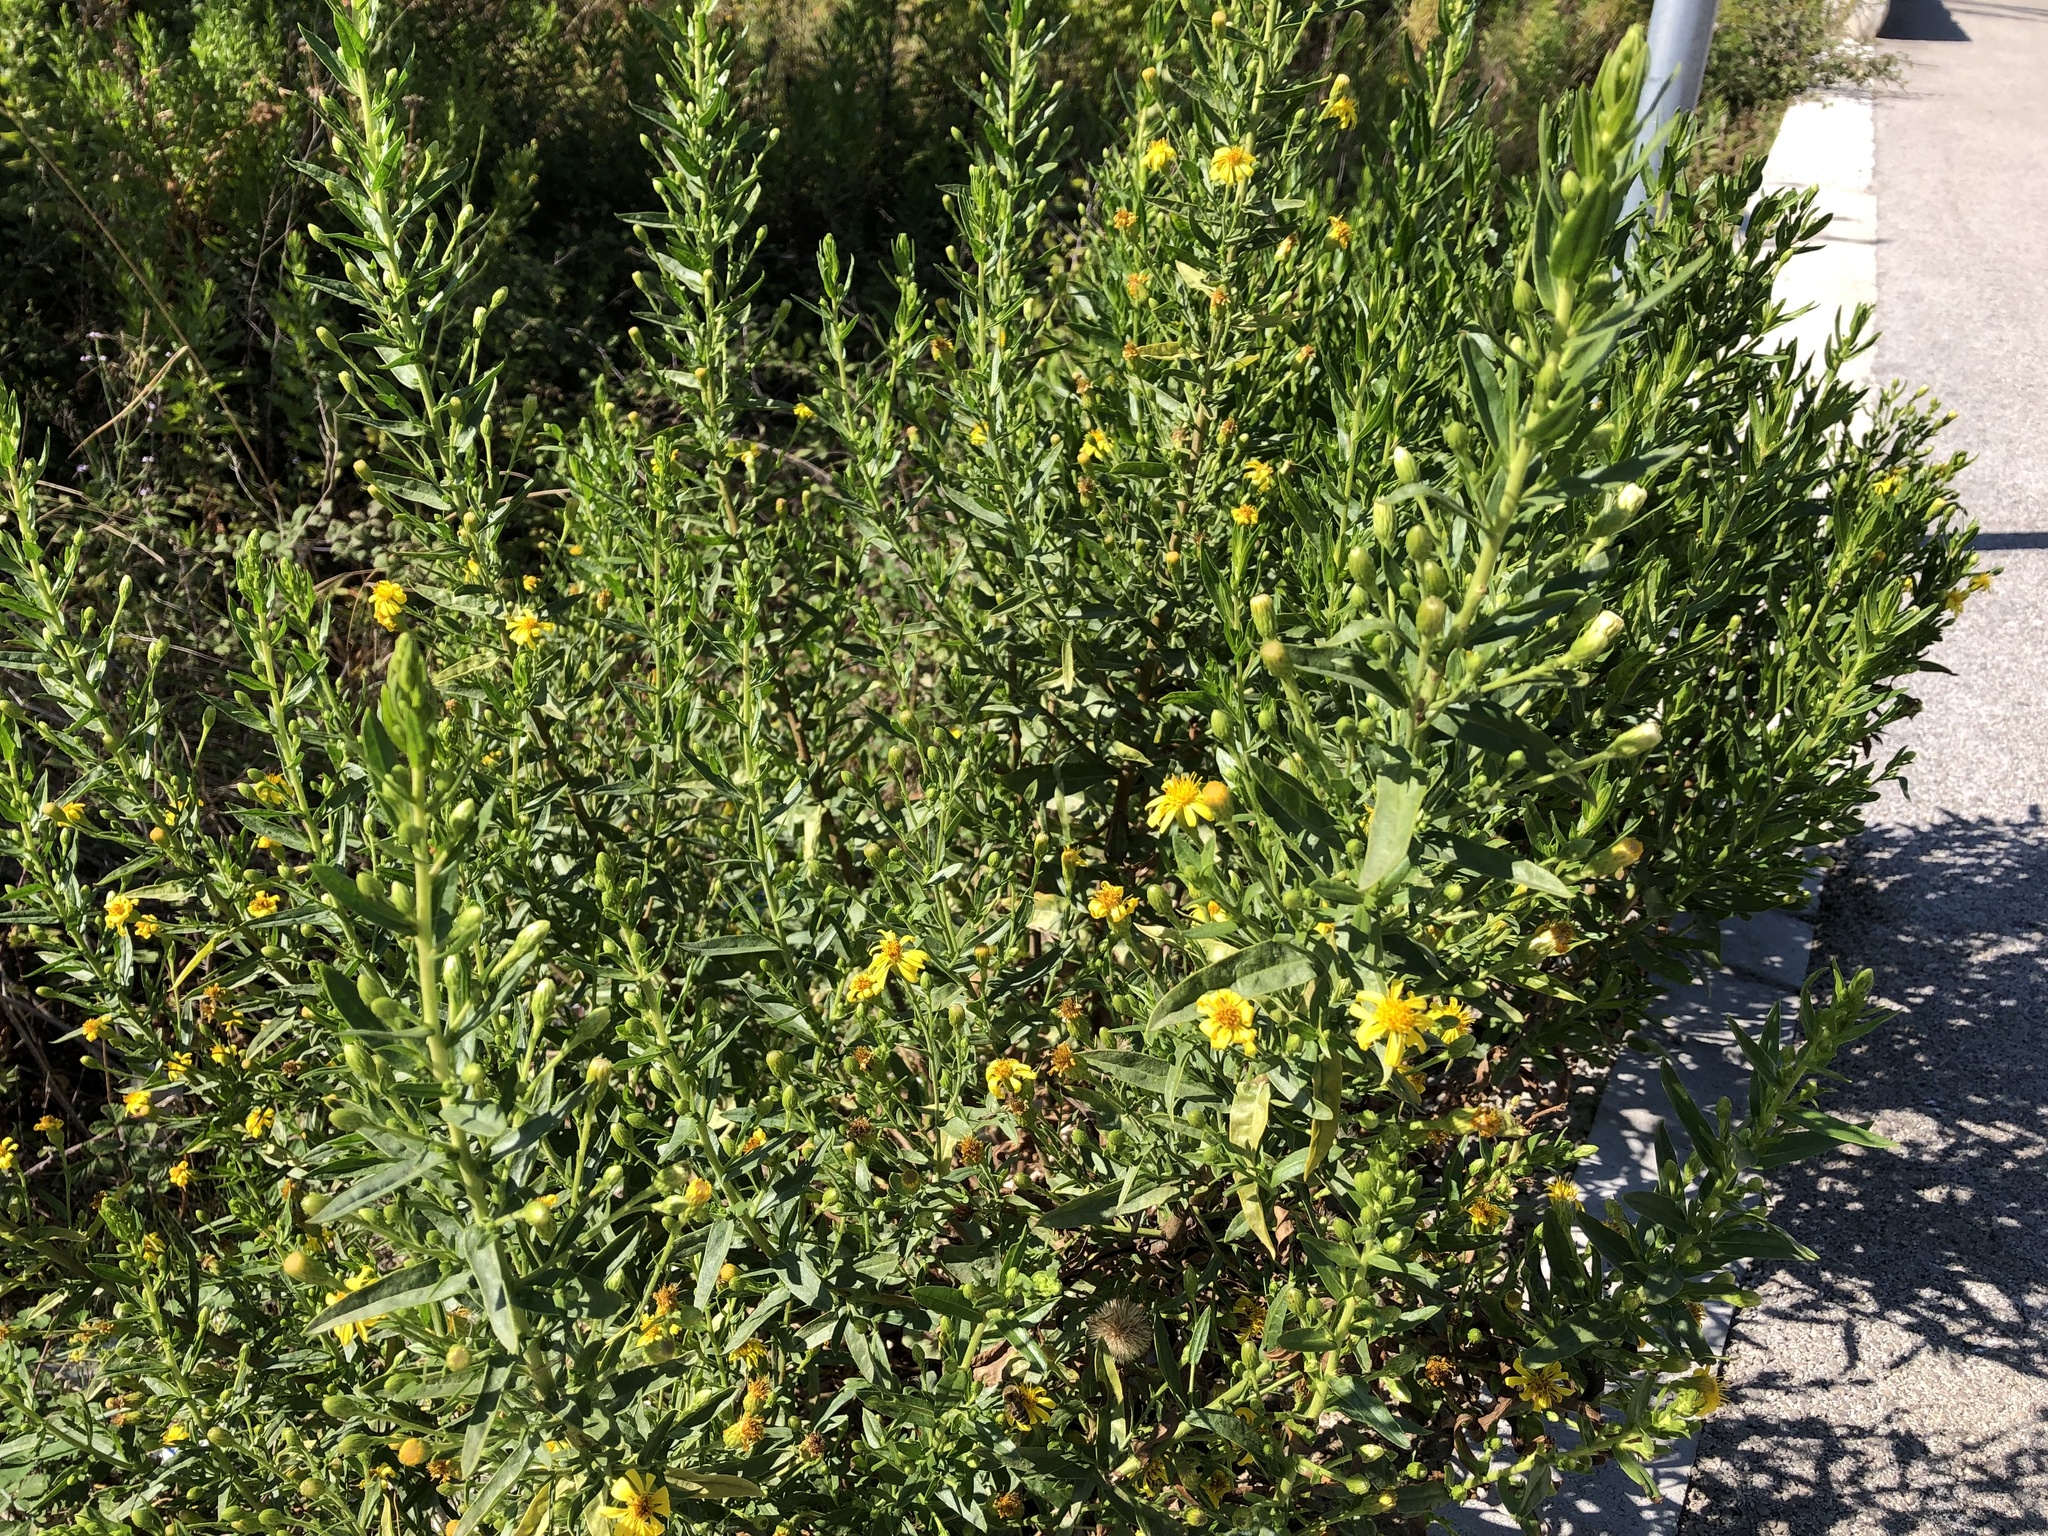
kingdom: Plantae
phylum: Tracheophyta
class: Magnoliopsida
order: Asterales
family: Asteraceae
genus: Dittrichia
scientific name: Dittrichia viscosa
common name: Woody fleabane
